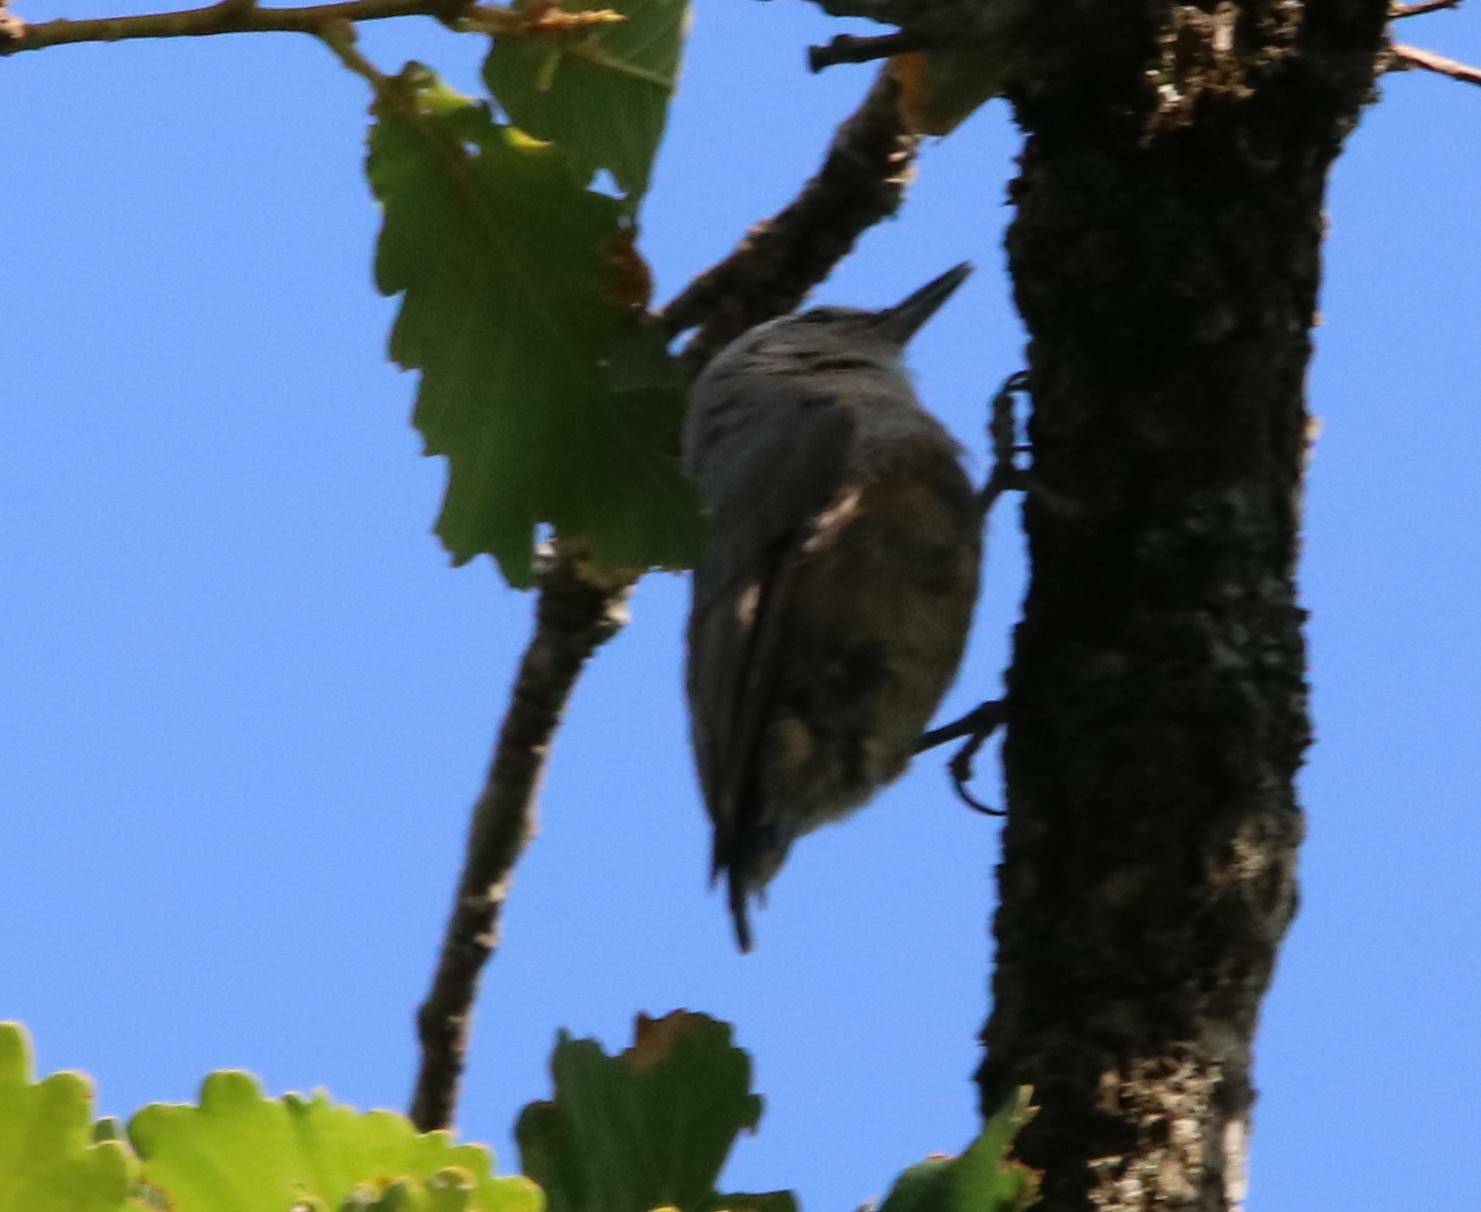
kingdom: Animalia
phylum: Chordata
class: Aves
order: Passeriformes
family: Sittidae
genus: Sitta
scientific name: Sitta ledanti
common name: Algerian nuthatch
